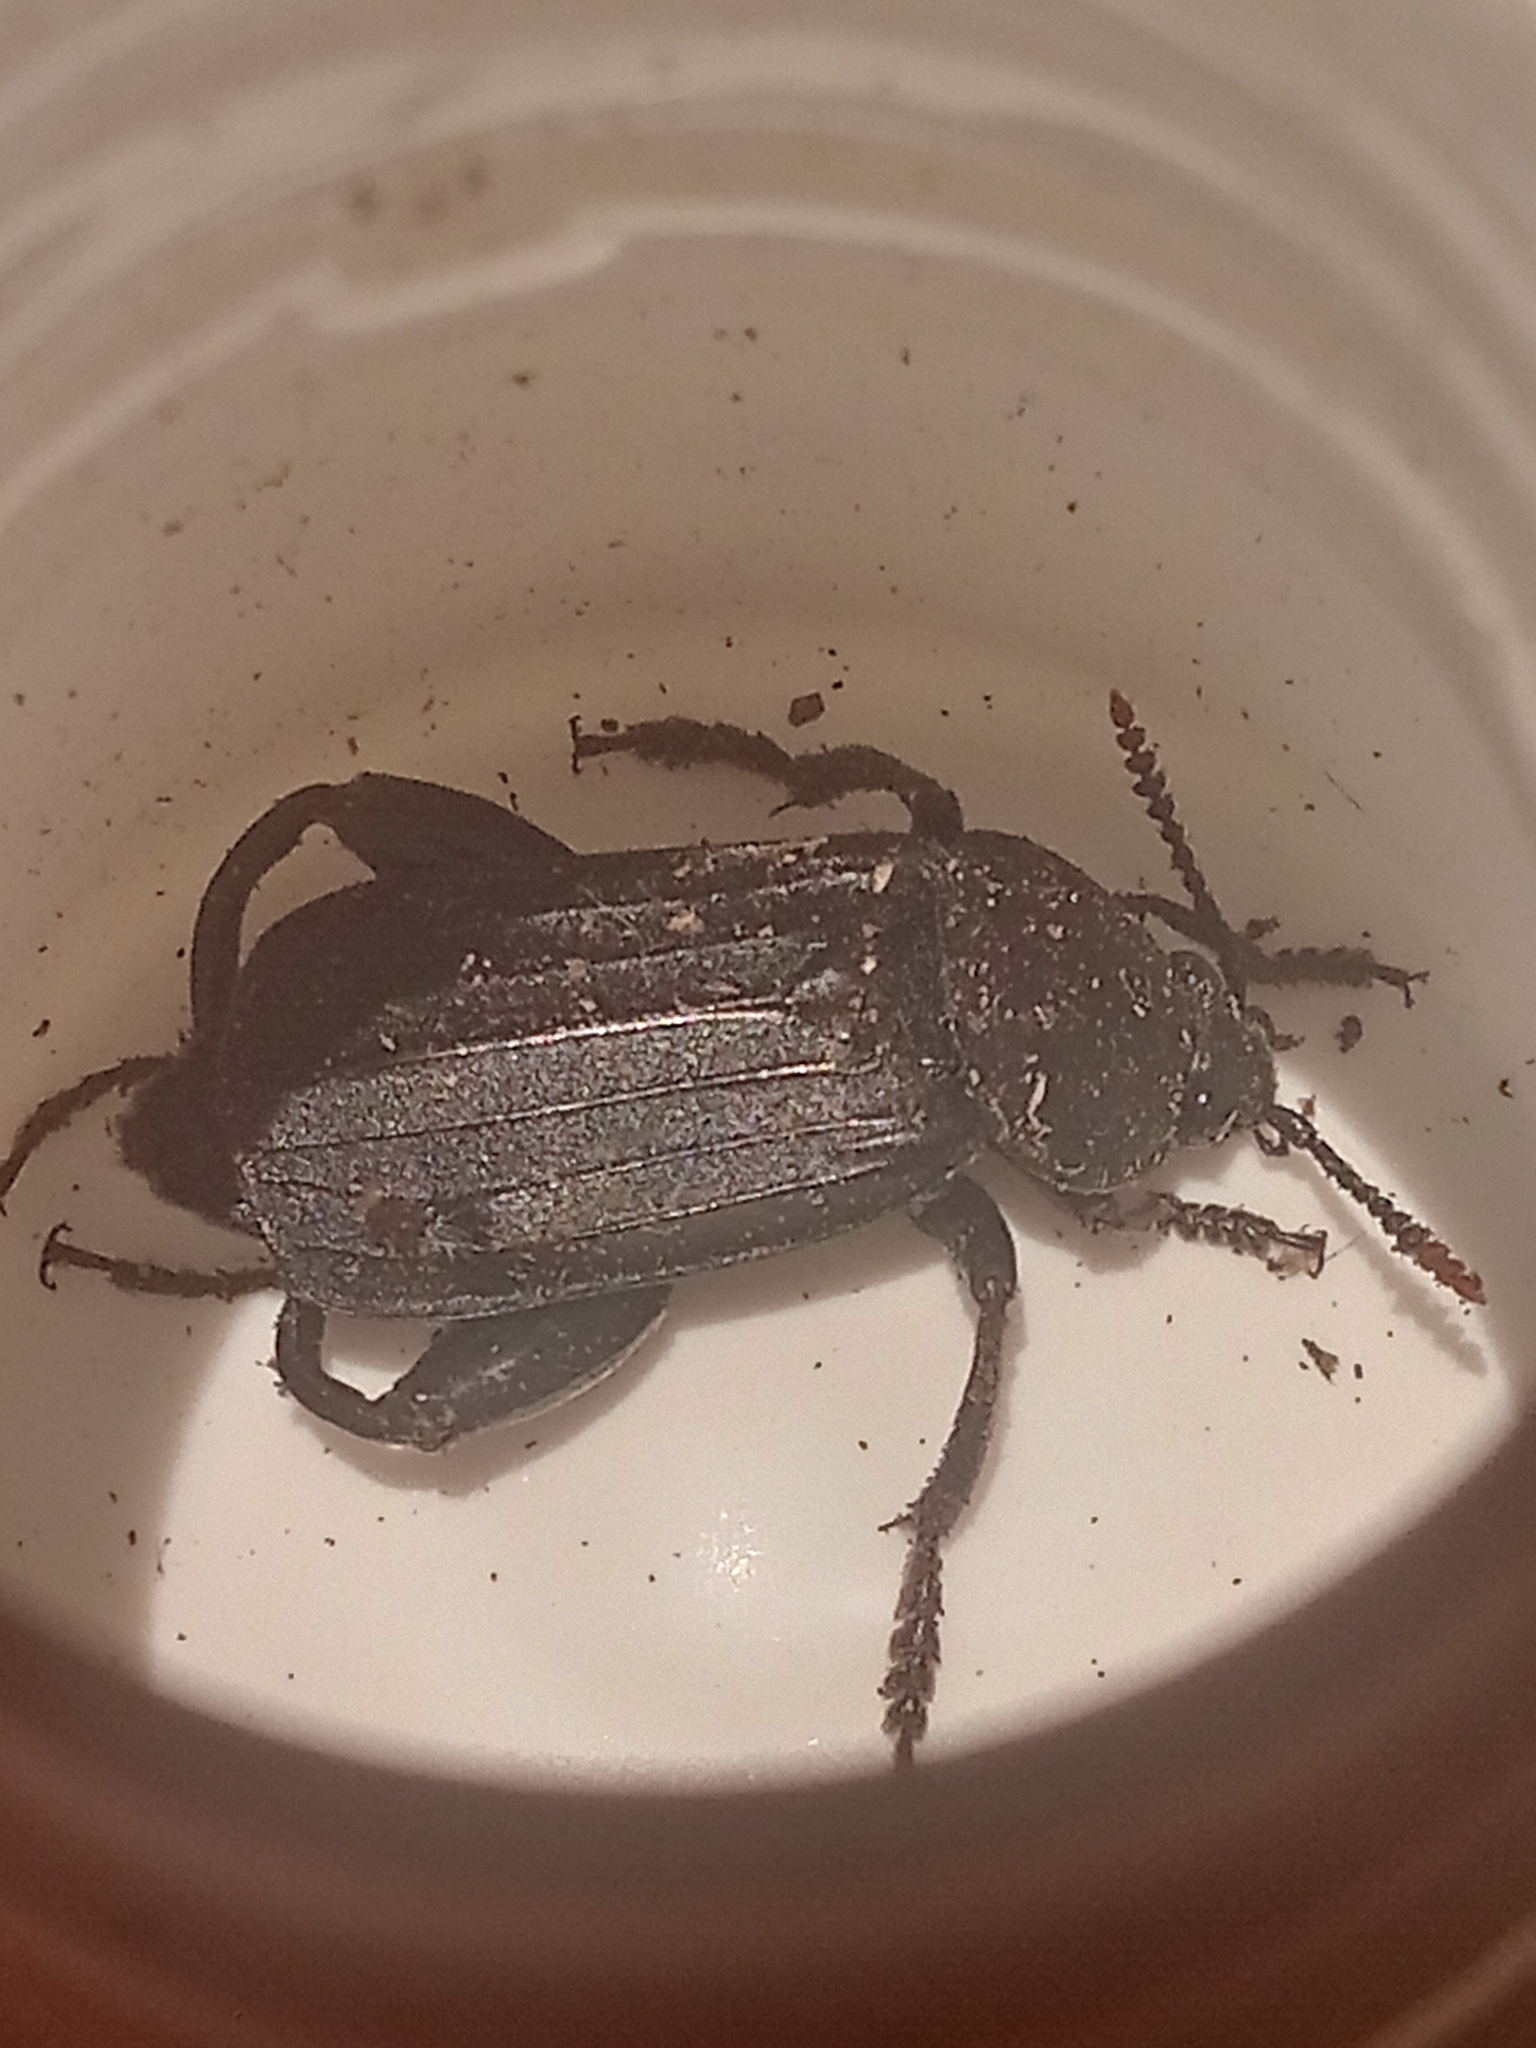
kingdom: Animalia
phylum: Arthropoda
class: Insecta
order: Coleoptera
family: Staphylinidae
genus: Necrodes
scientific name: Necrodes littoralis
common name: Shore sexton beetle
